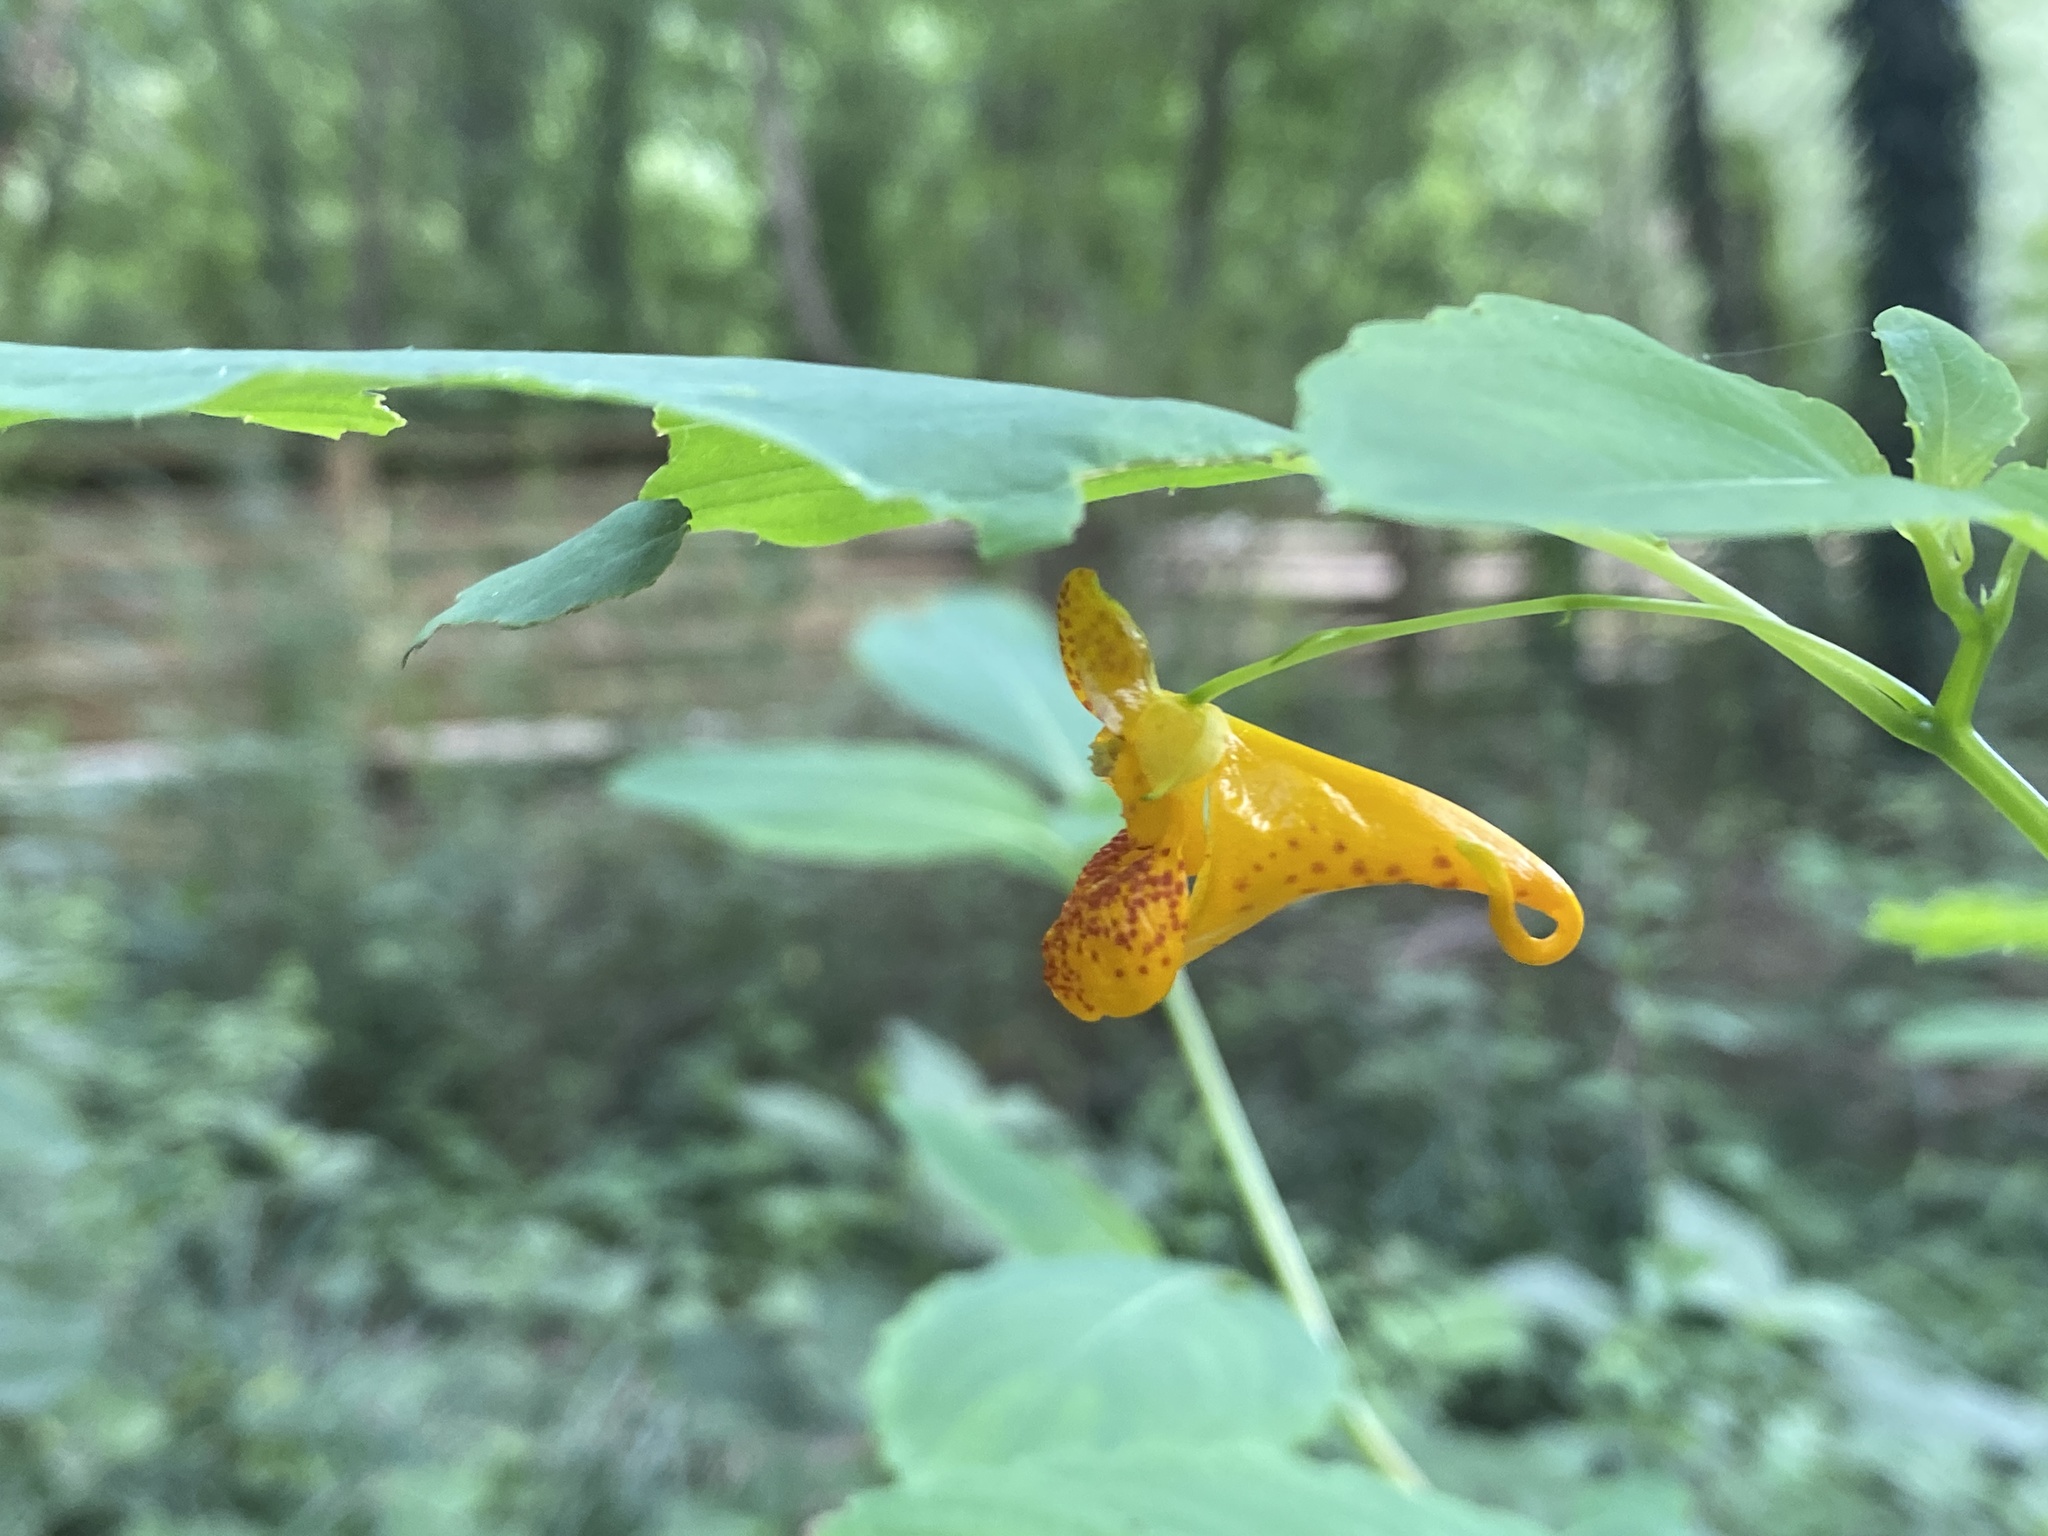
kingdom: Plantae
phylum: Tracheophyta
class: Magnoliopsida
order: Ericales
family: Balsaminaceae
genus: Impatiens
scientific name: Impatiens capensis
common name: Orange balsam
